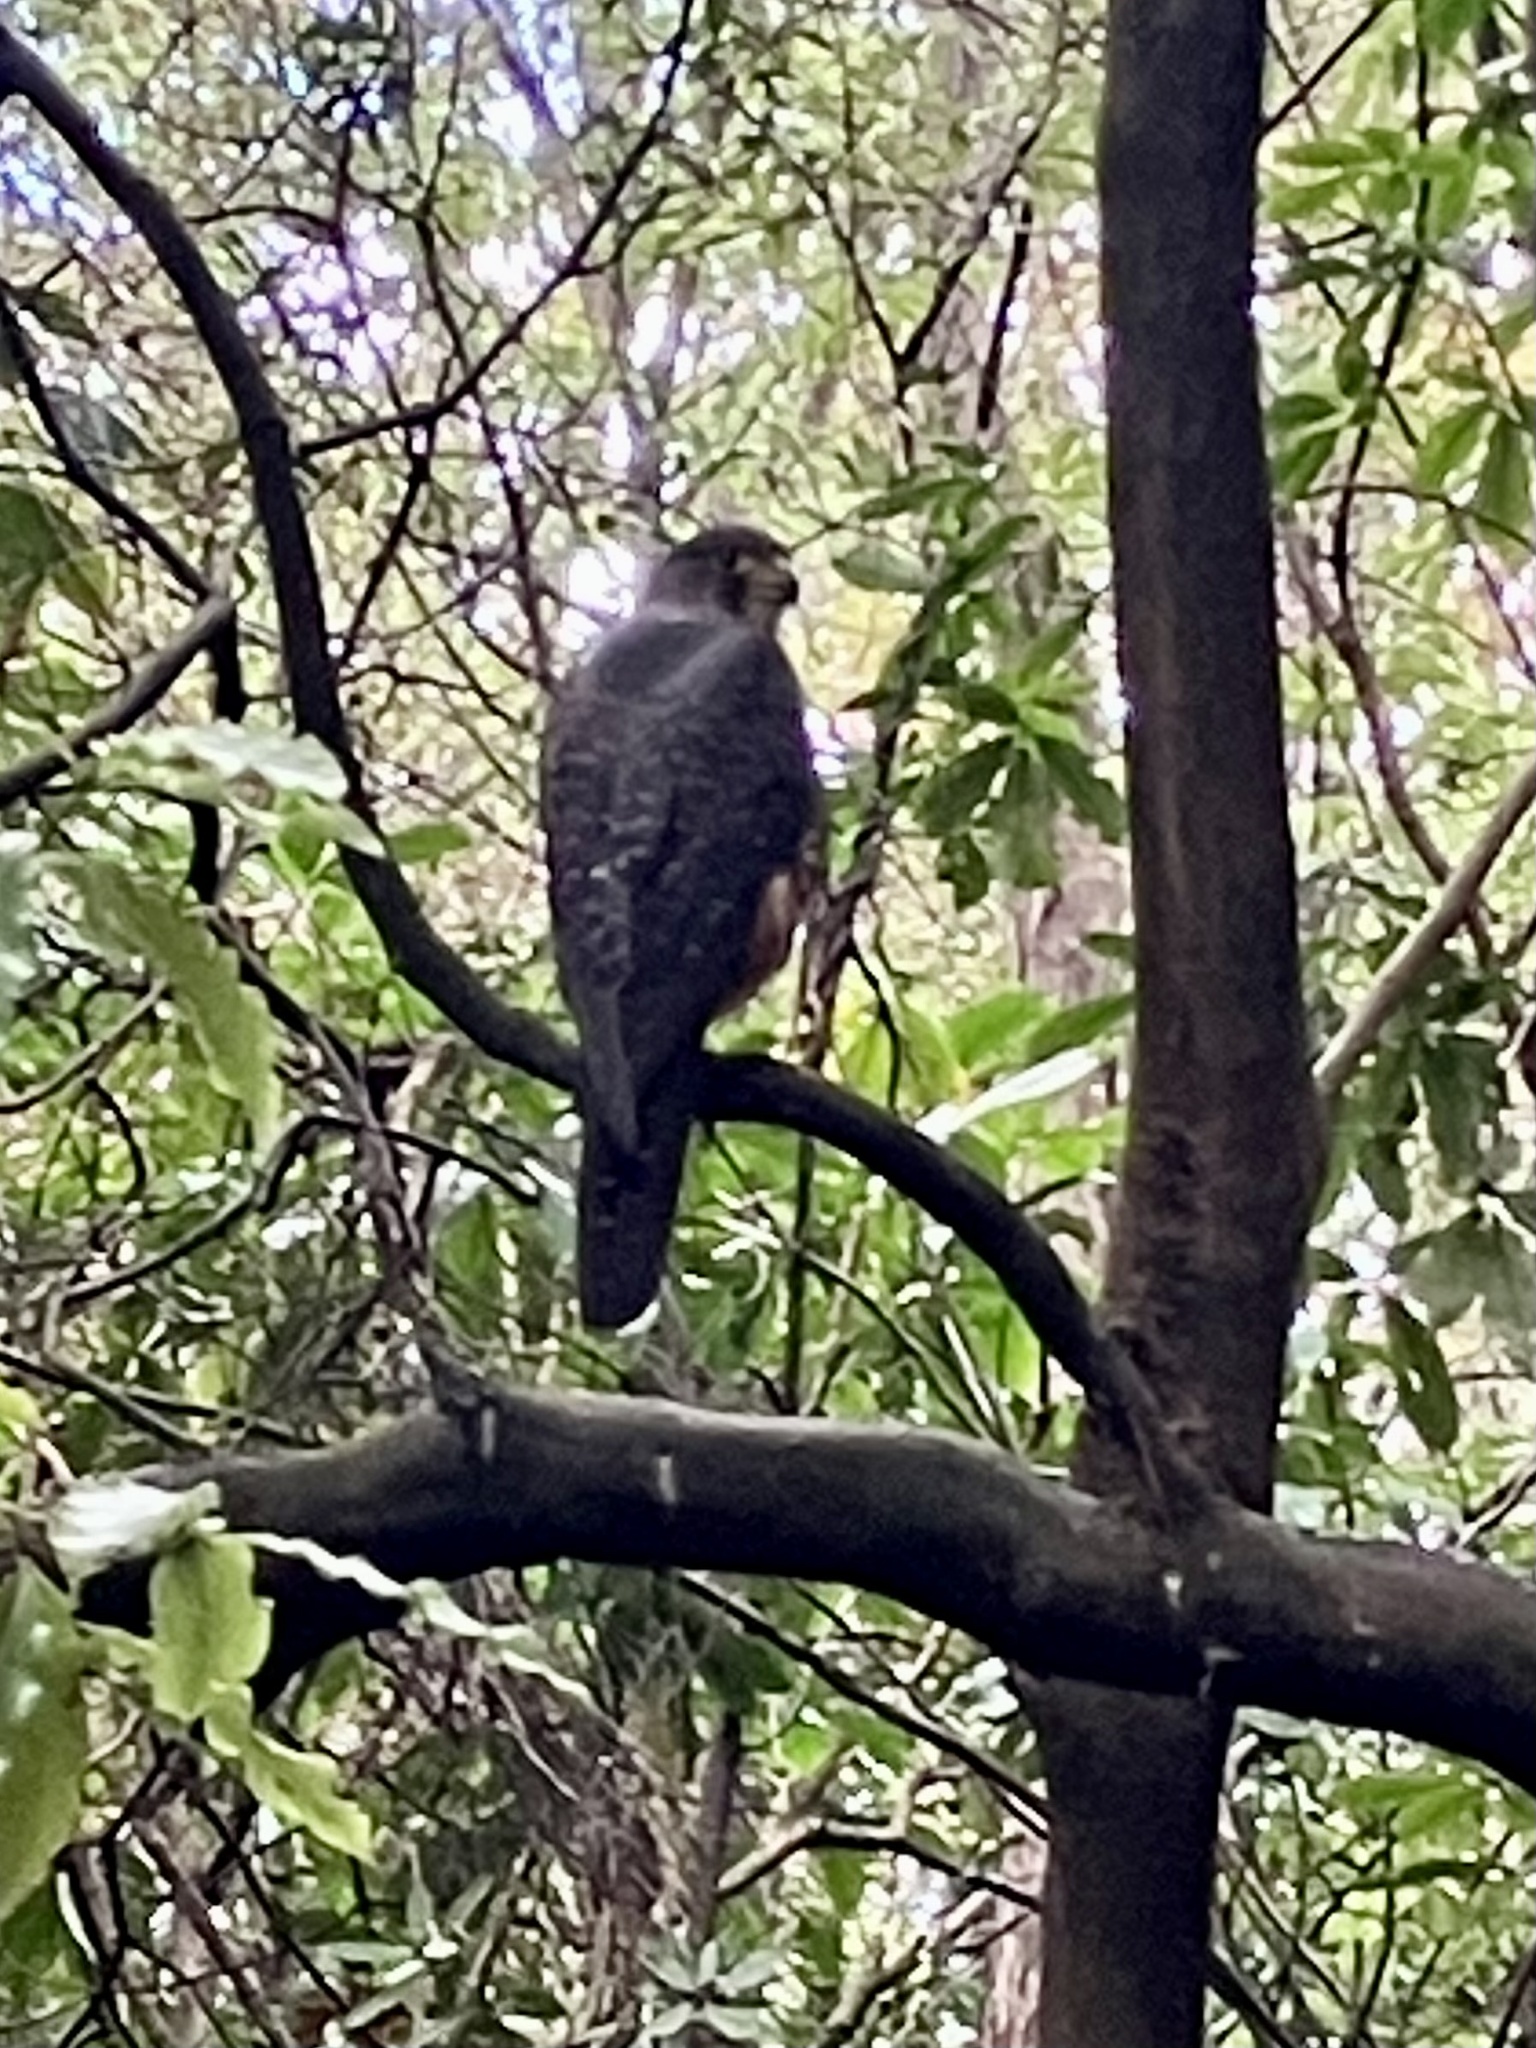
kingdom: Animalia
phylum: Chordata
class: Aves
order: Falconiformes
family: Falconidae
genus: Falco
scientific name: Falco novaeseelandiae
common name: New zealand falcon
